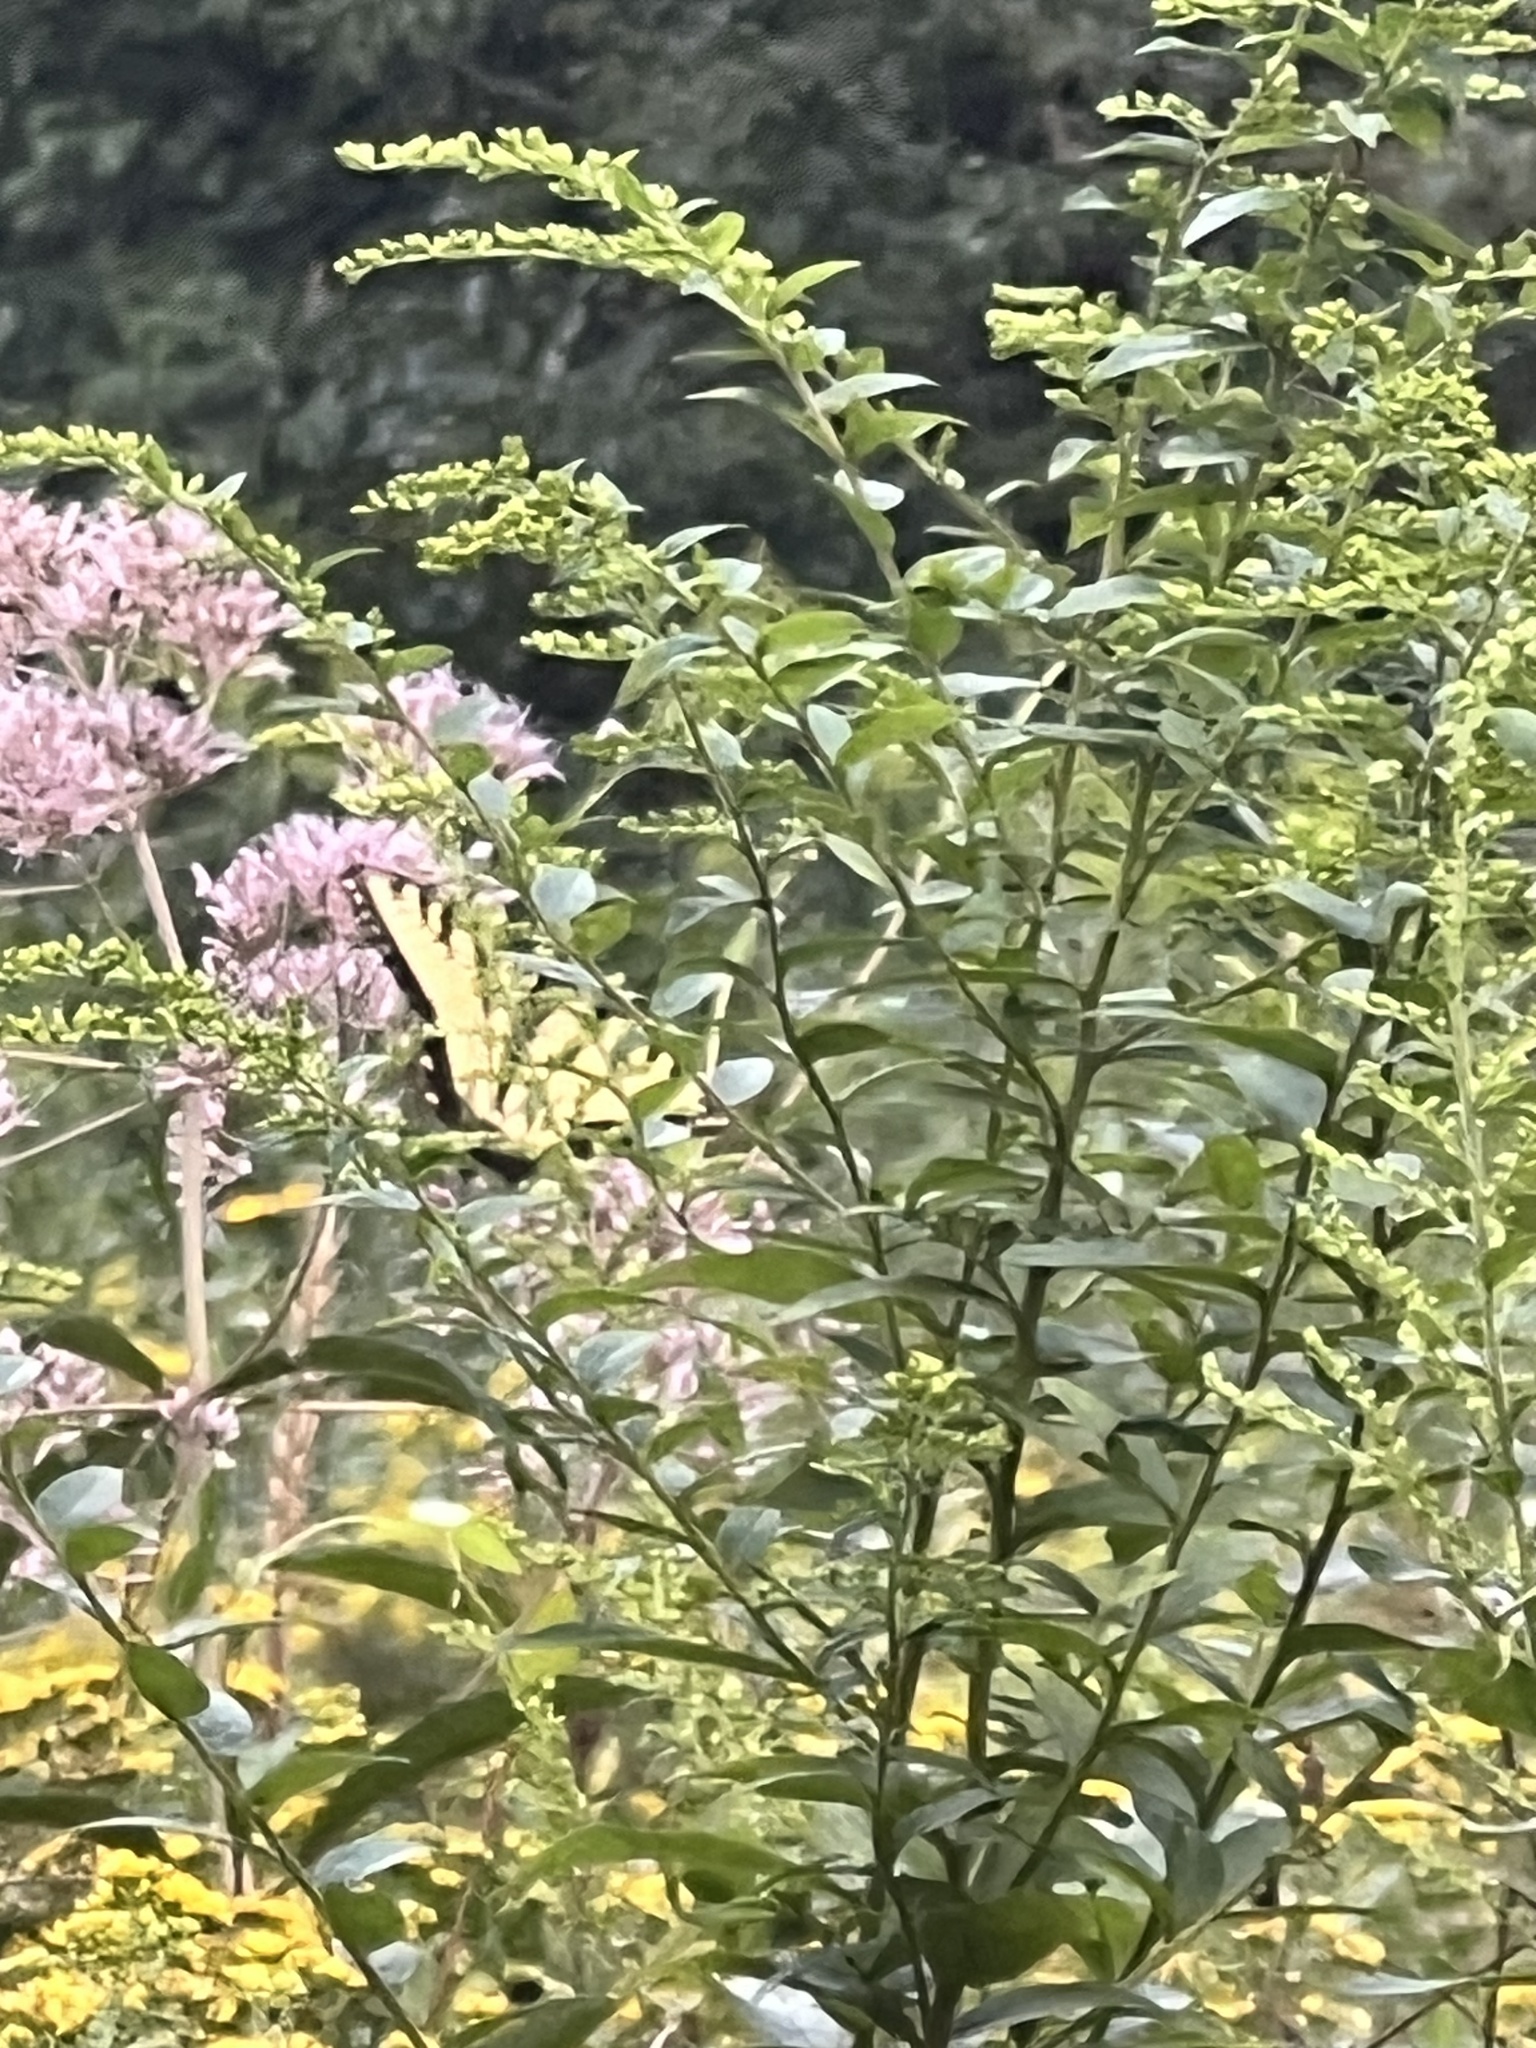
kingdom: Animalia
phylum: Arthropoda
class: Insecta
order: Lepidoptera
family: Papilionidae
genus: Papilio
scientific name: Papilio glaucus
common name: Tiger swallowtail
